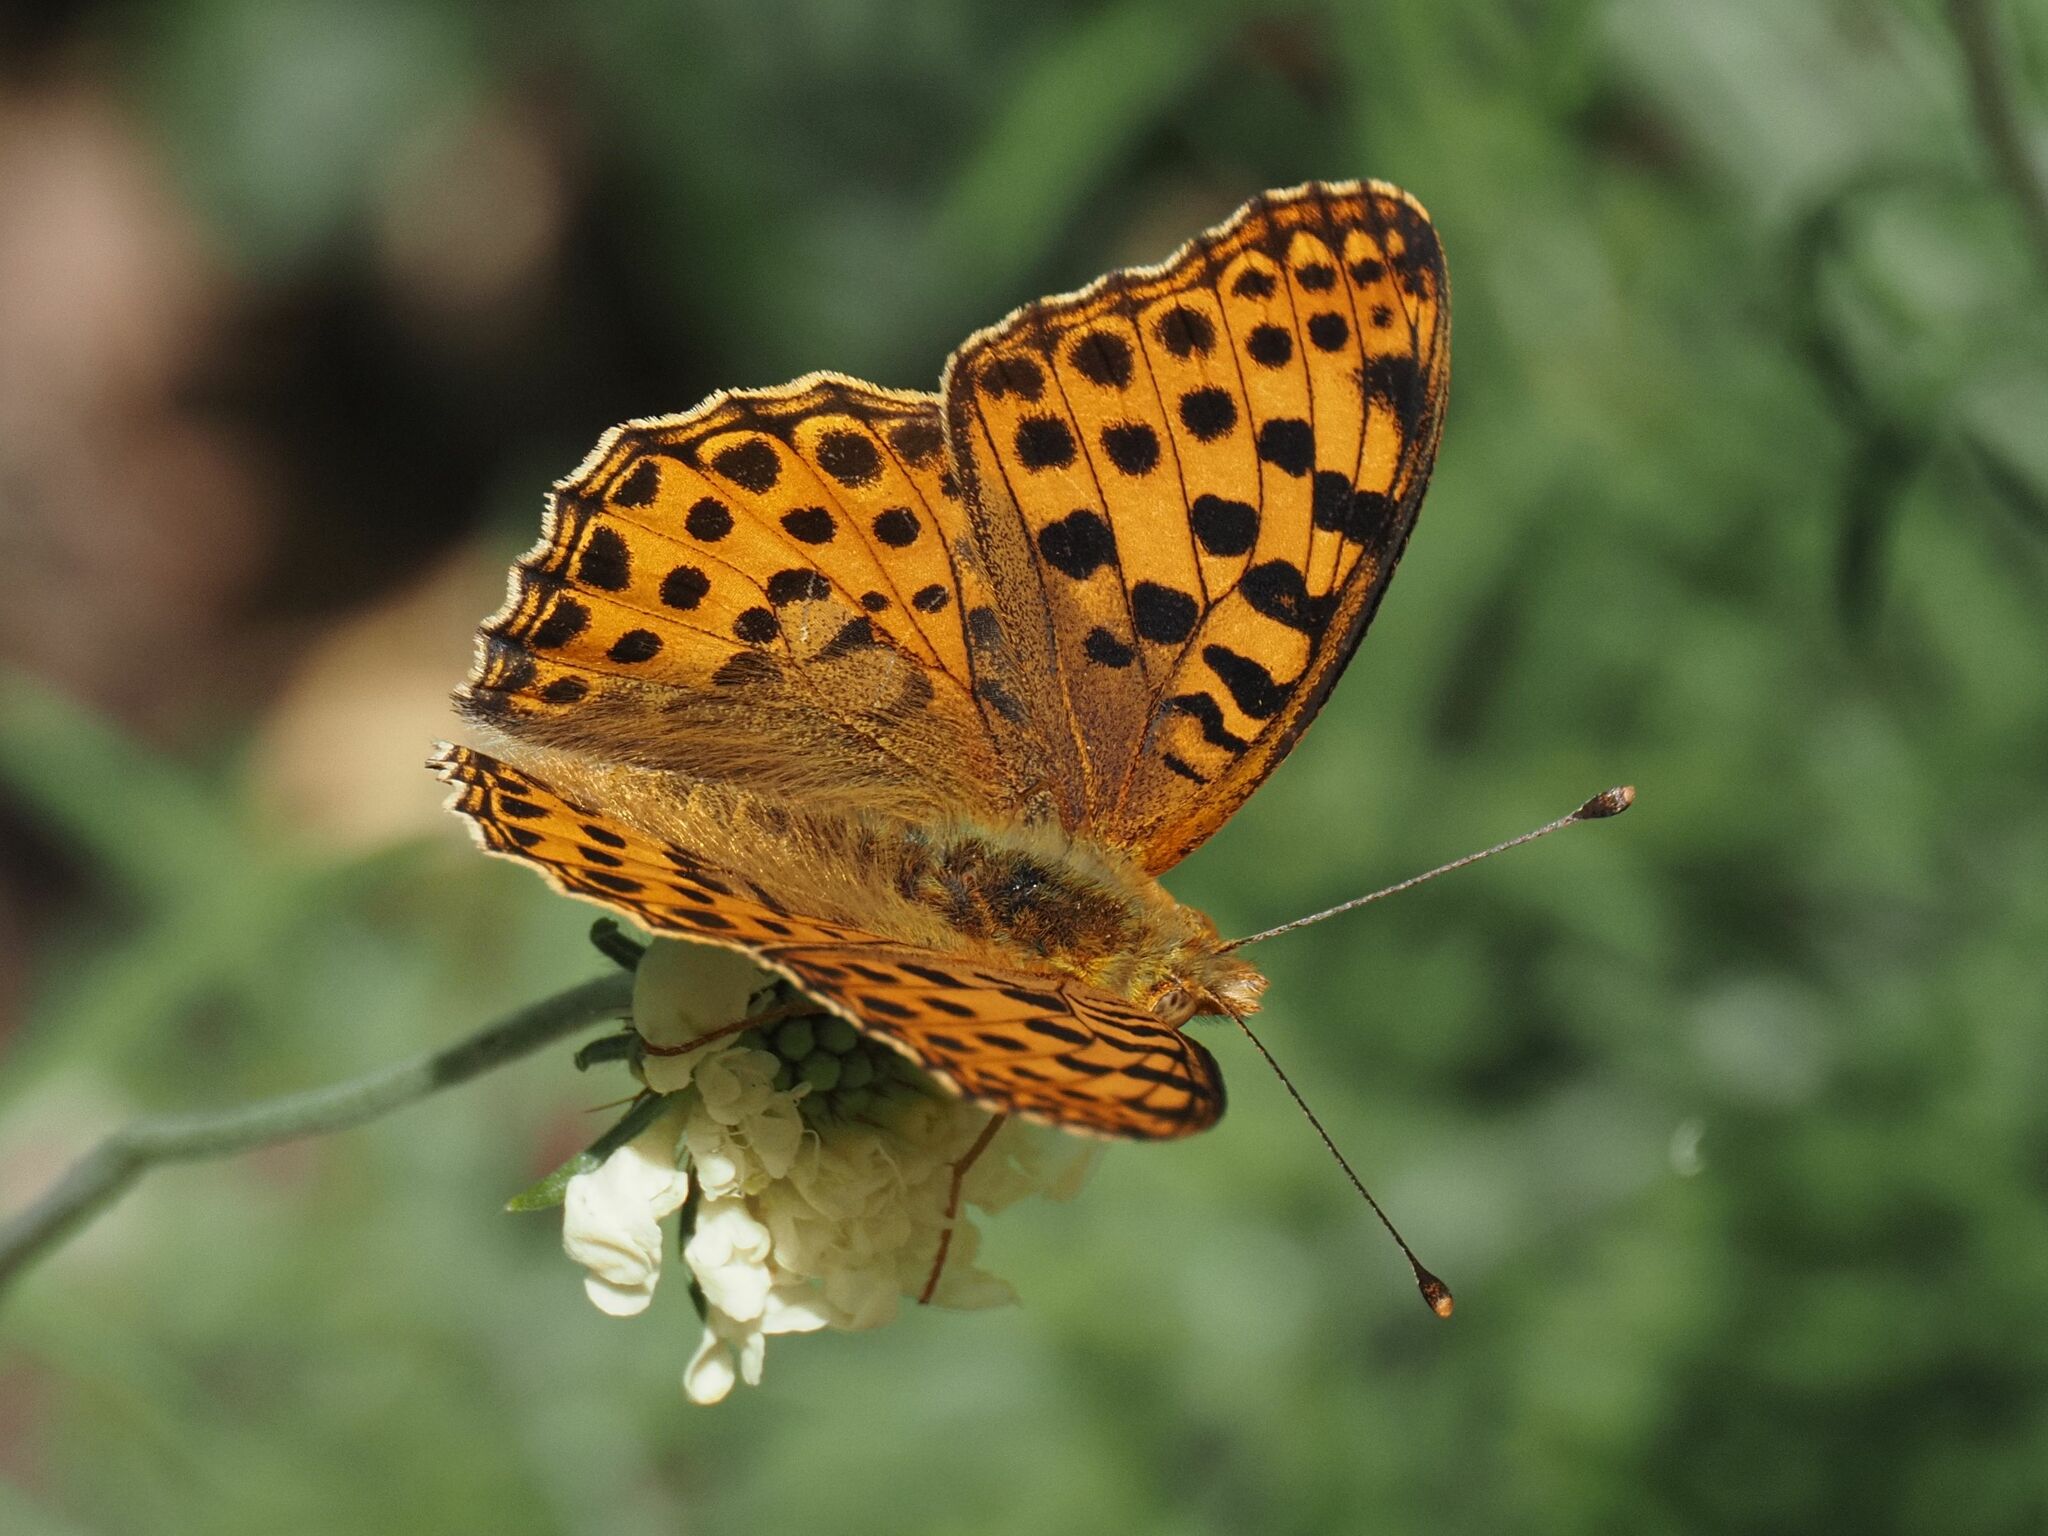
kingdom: Animalia
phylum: Arthropoda
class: Insecta
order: Lepidoptera
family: Nymphalidae
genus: Issoria
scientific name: Issoria lathonia
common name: Queen of spain fritillary
